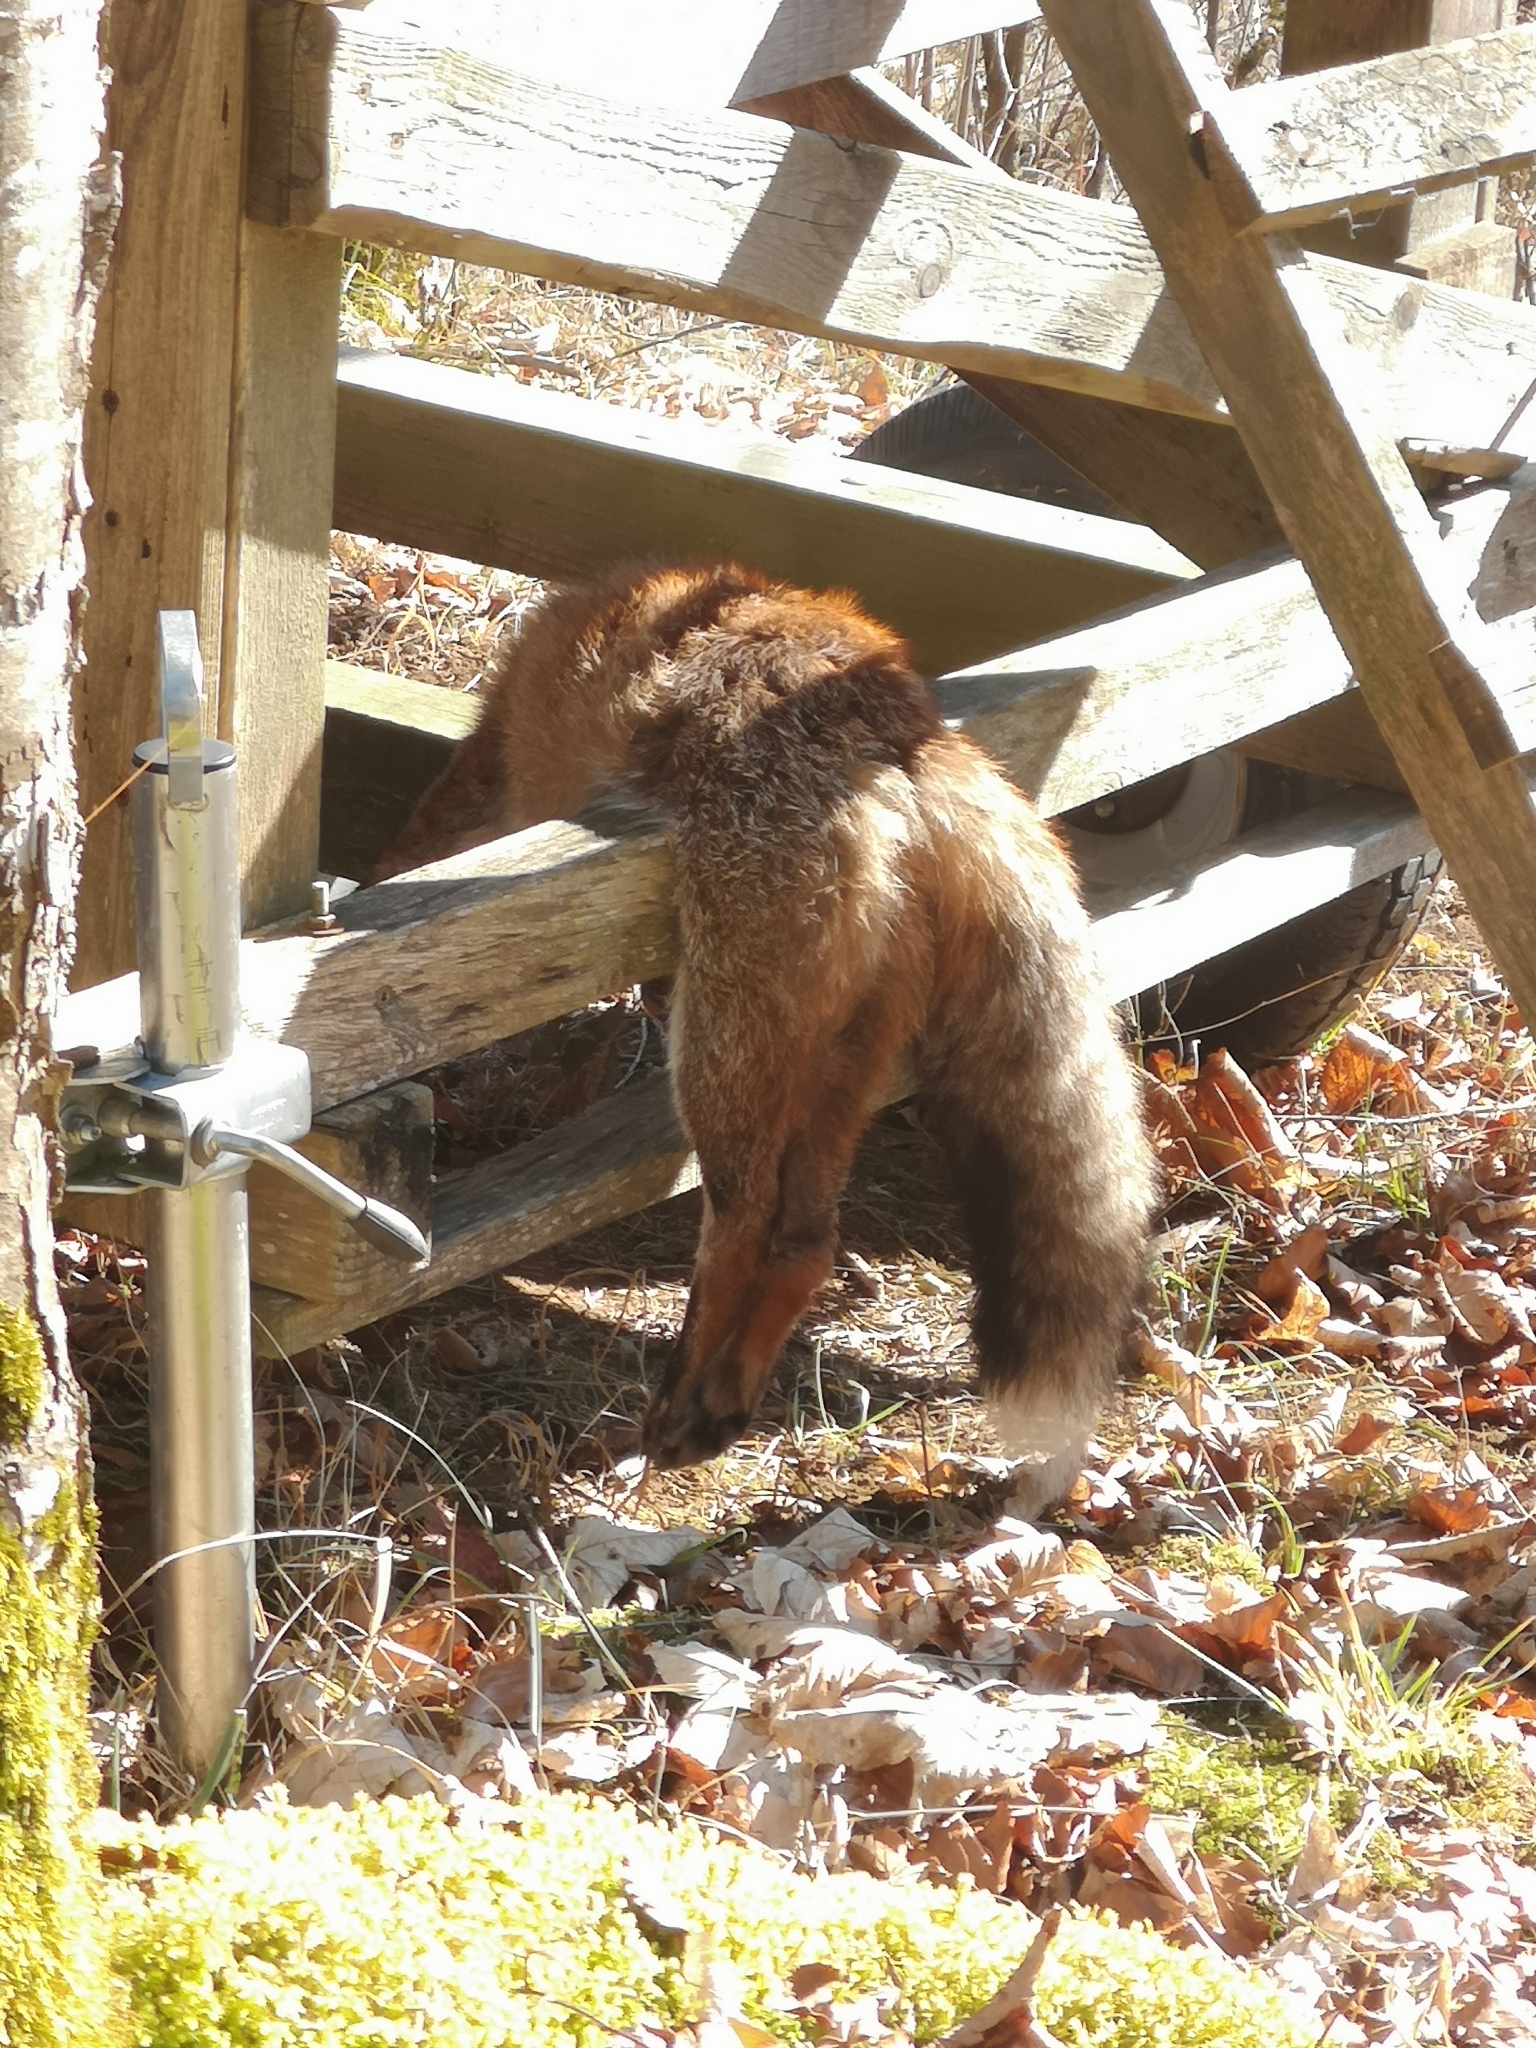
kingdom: Animalia
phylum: Chordata
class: Mammalia
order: Carnivora
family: Canidae
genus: Vulpes
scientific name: Vulpes vulpes
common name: Red fox
